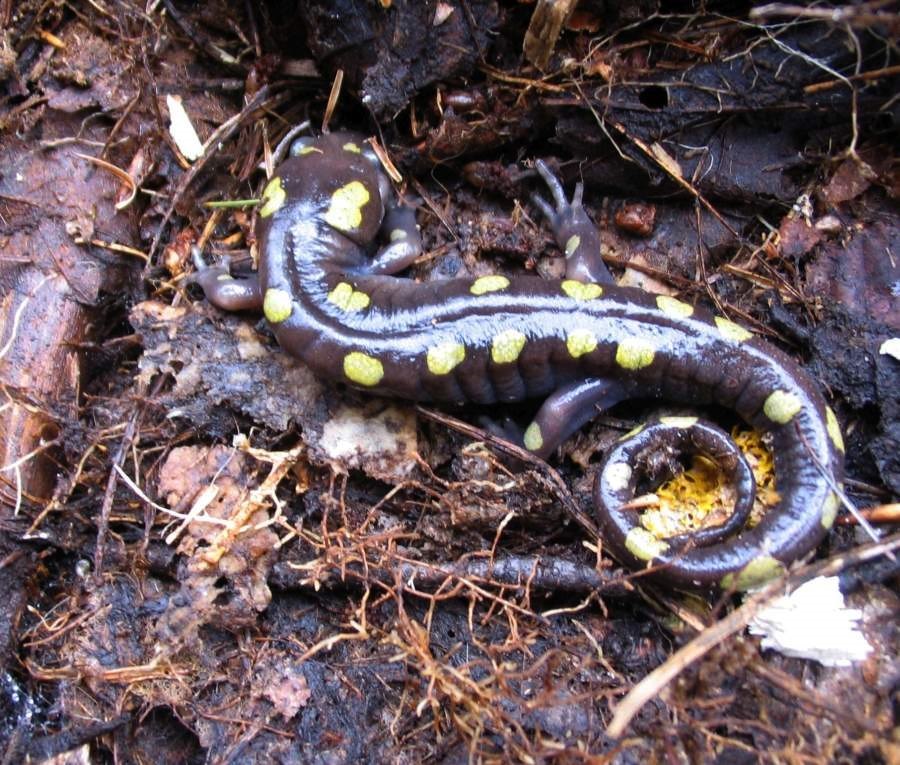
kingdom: Animalia
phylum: Chordata
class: Amphibia
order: Caudata
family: Ambystomatidae
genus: Ambystoma
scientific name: Ambystoma maculatum
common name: Spotted salamander
